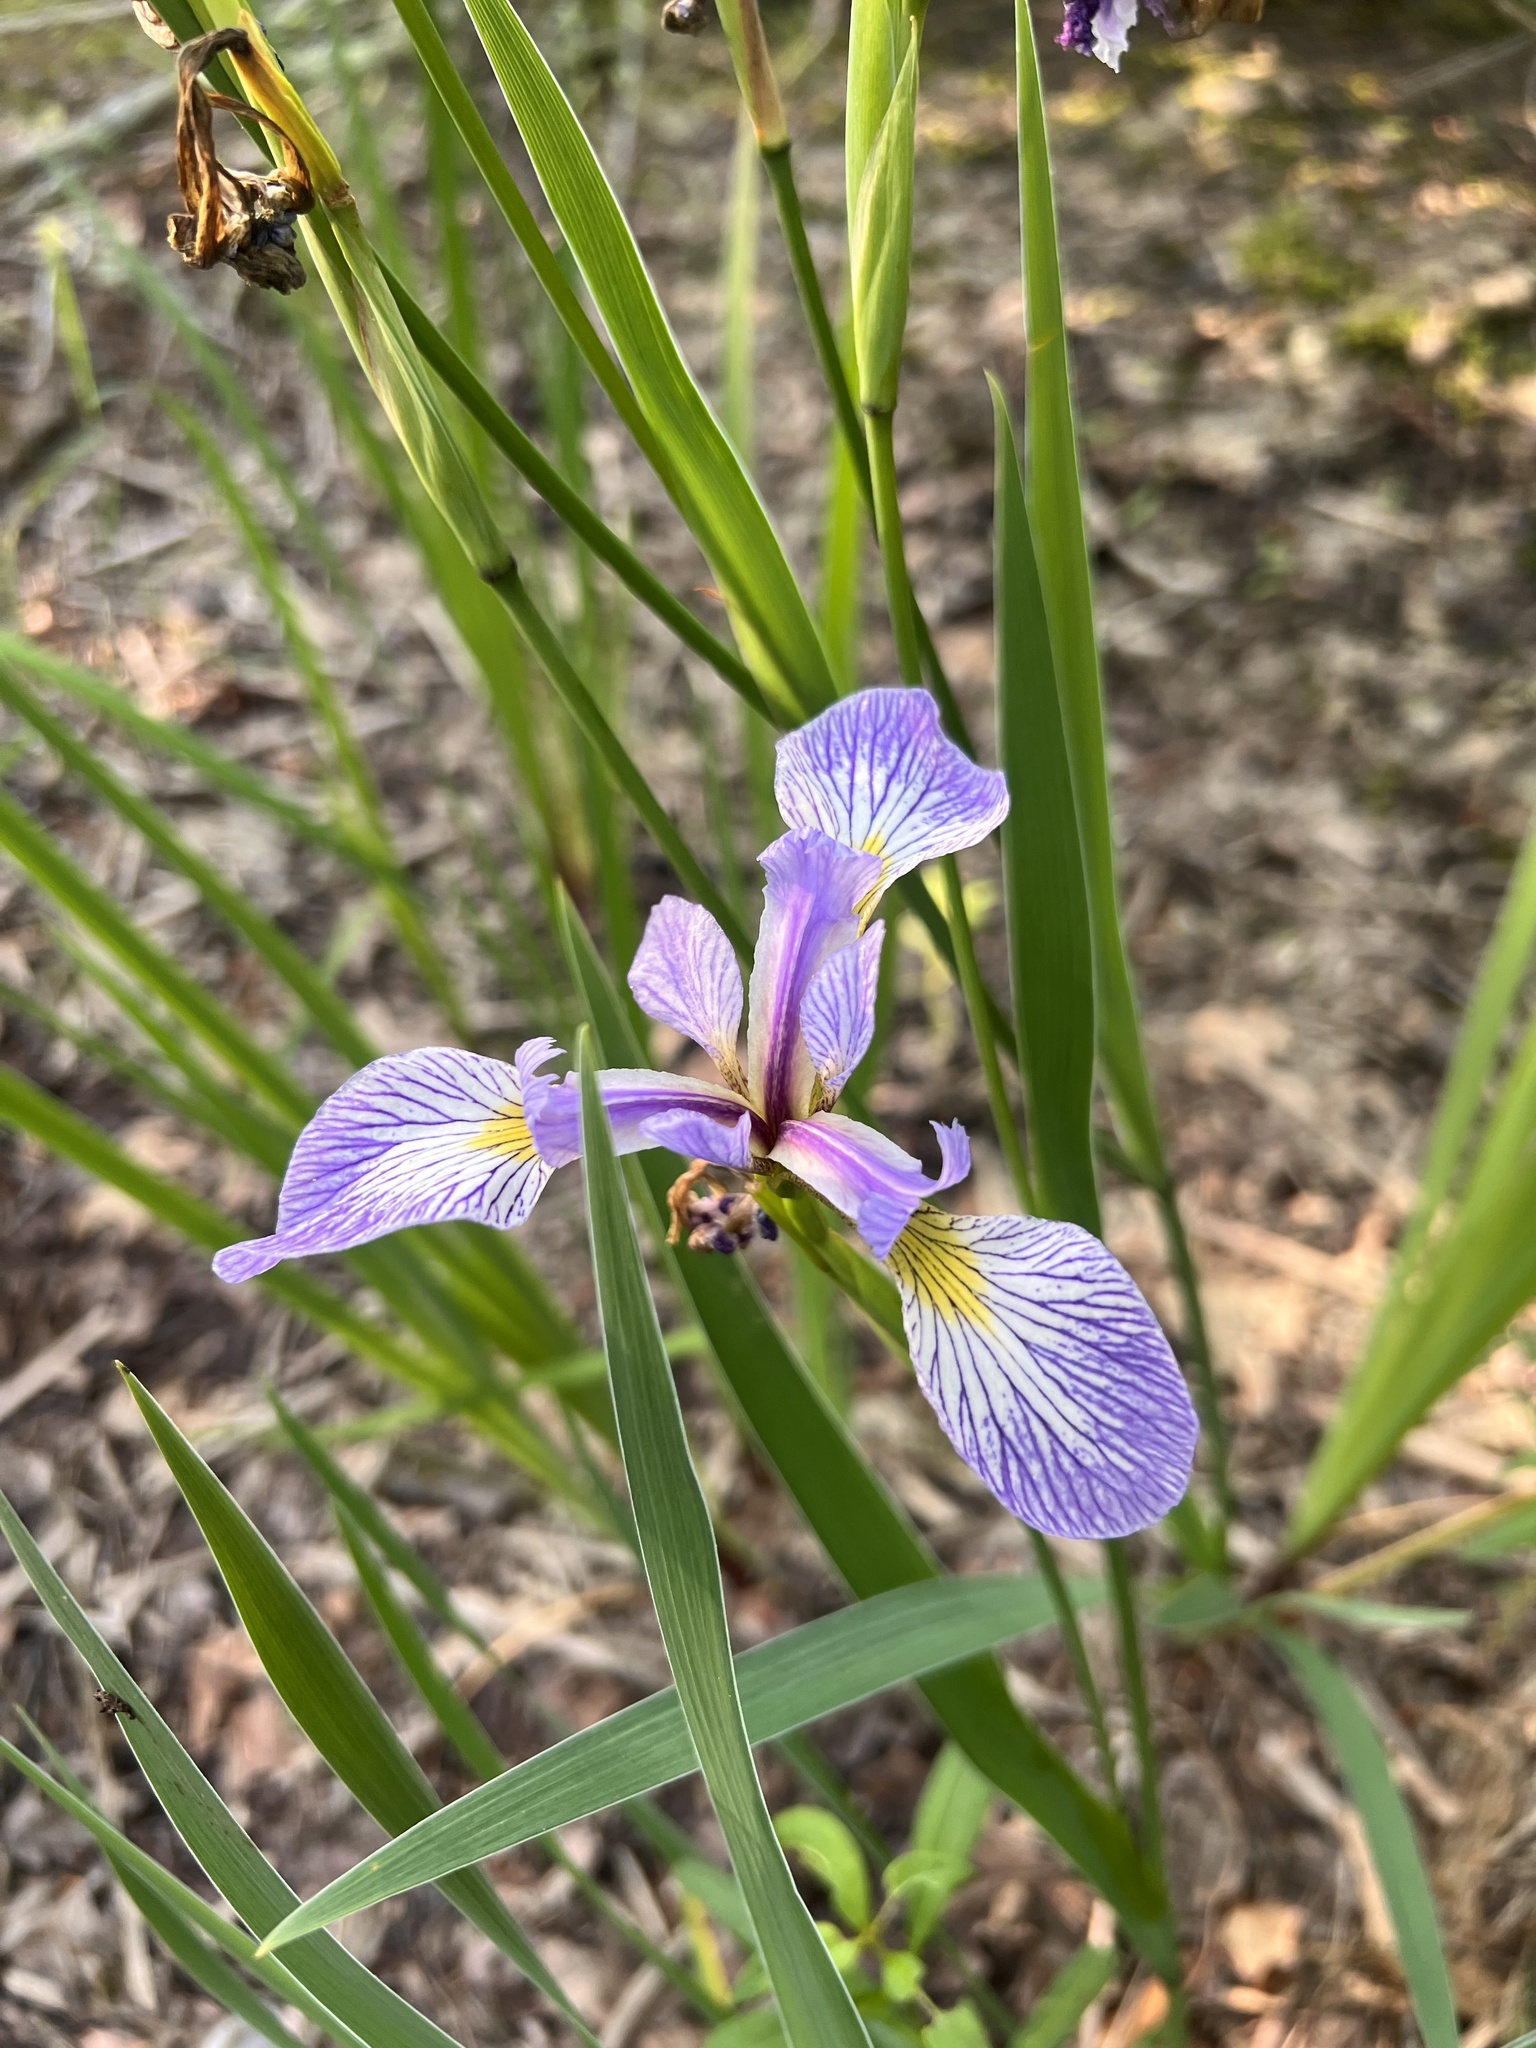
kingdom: Plantae
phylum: Tracheophyta
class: Liliopsida
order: Asparagales
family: Iridaceae
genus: Iris
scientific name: Iris versicolor
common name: Purple iris
